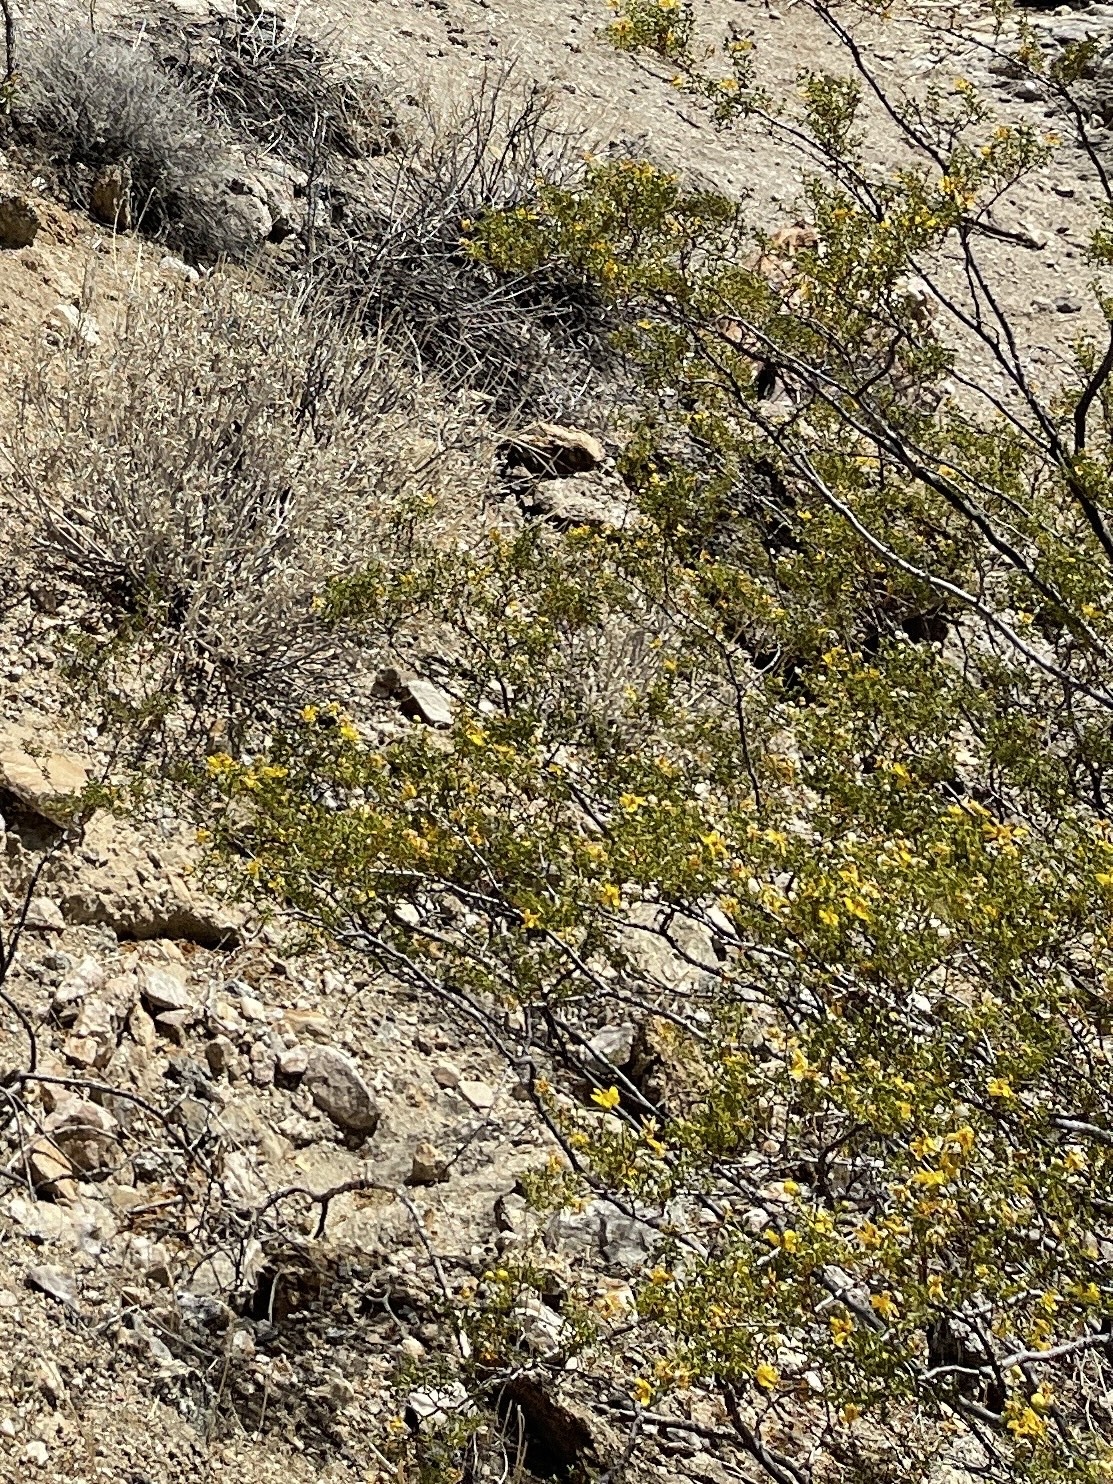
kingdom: Plantae
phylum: Tracheophyta
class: Magnoliopsida
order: Zygophyllales
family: Zygophyllaceae
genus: Larrea
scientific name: Larrea tridentata
